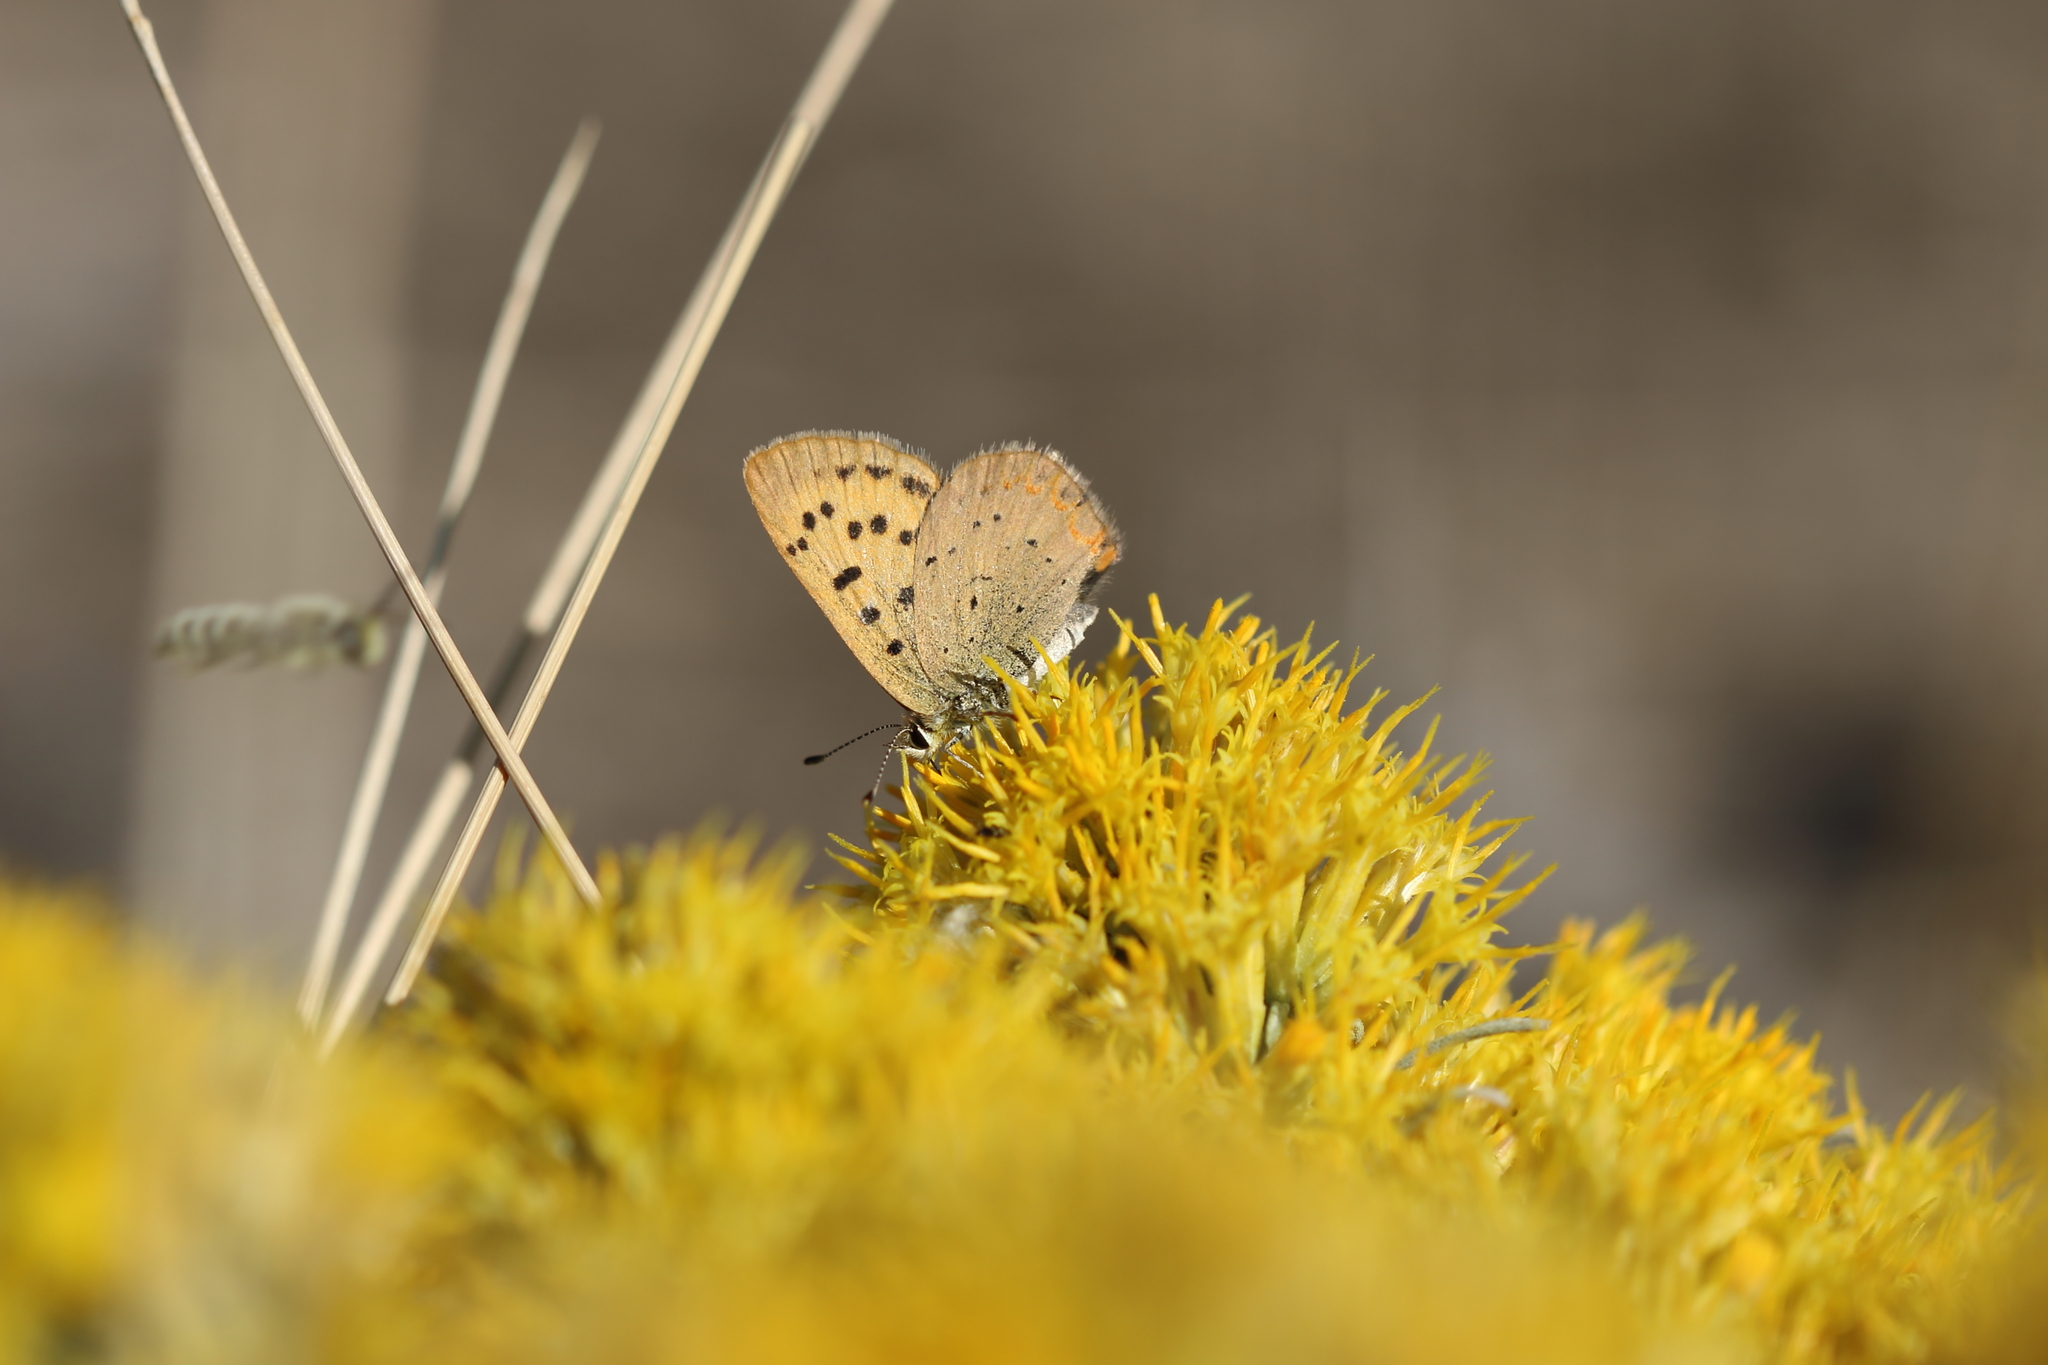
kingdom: Animalia
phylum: Arthropoda
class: Insecta
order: Lepidoptera
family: Lycaenidae
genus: Tharsalea
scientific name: Tharsalea helloides
